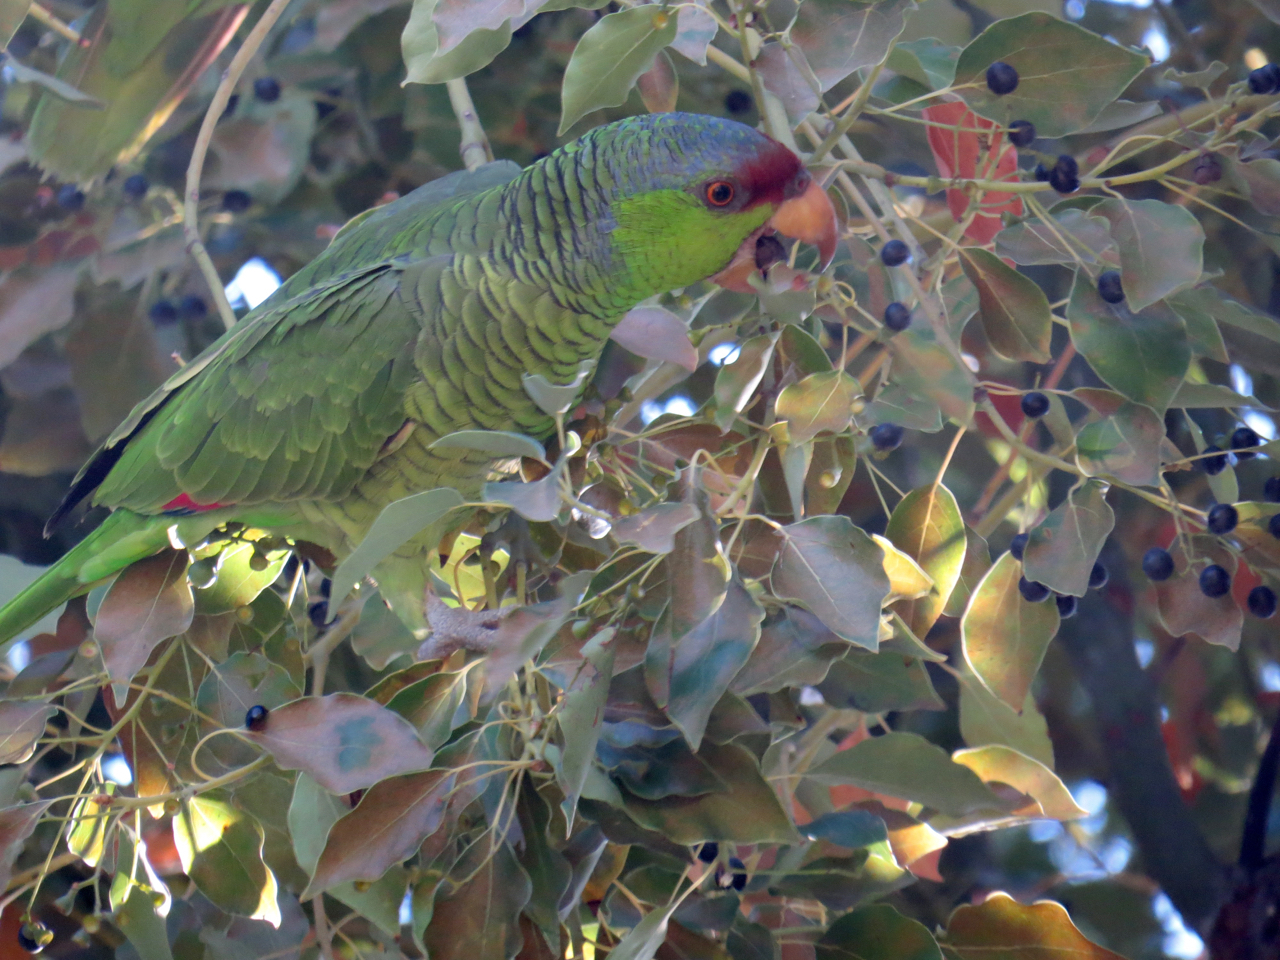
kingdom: Animalia
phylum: Chordata
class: Aves
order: Psittaciformes
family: Psittacidae
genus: Amazona
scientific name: Amazona finschi
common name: Lilac-crowned amazon
